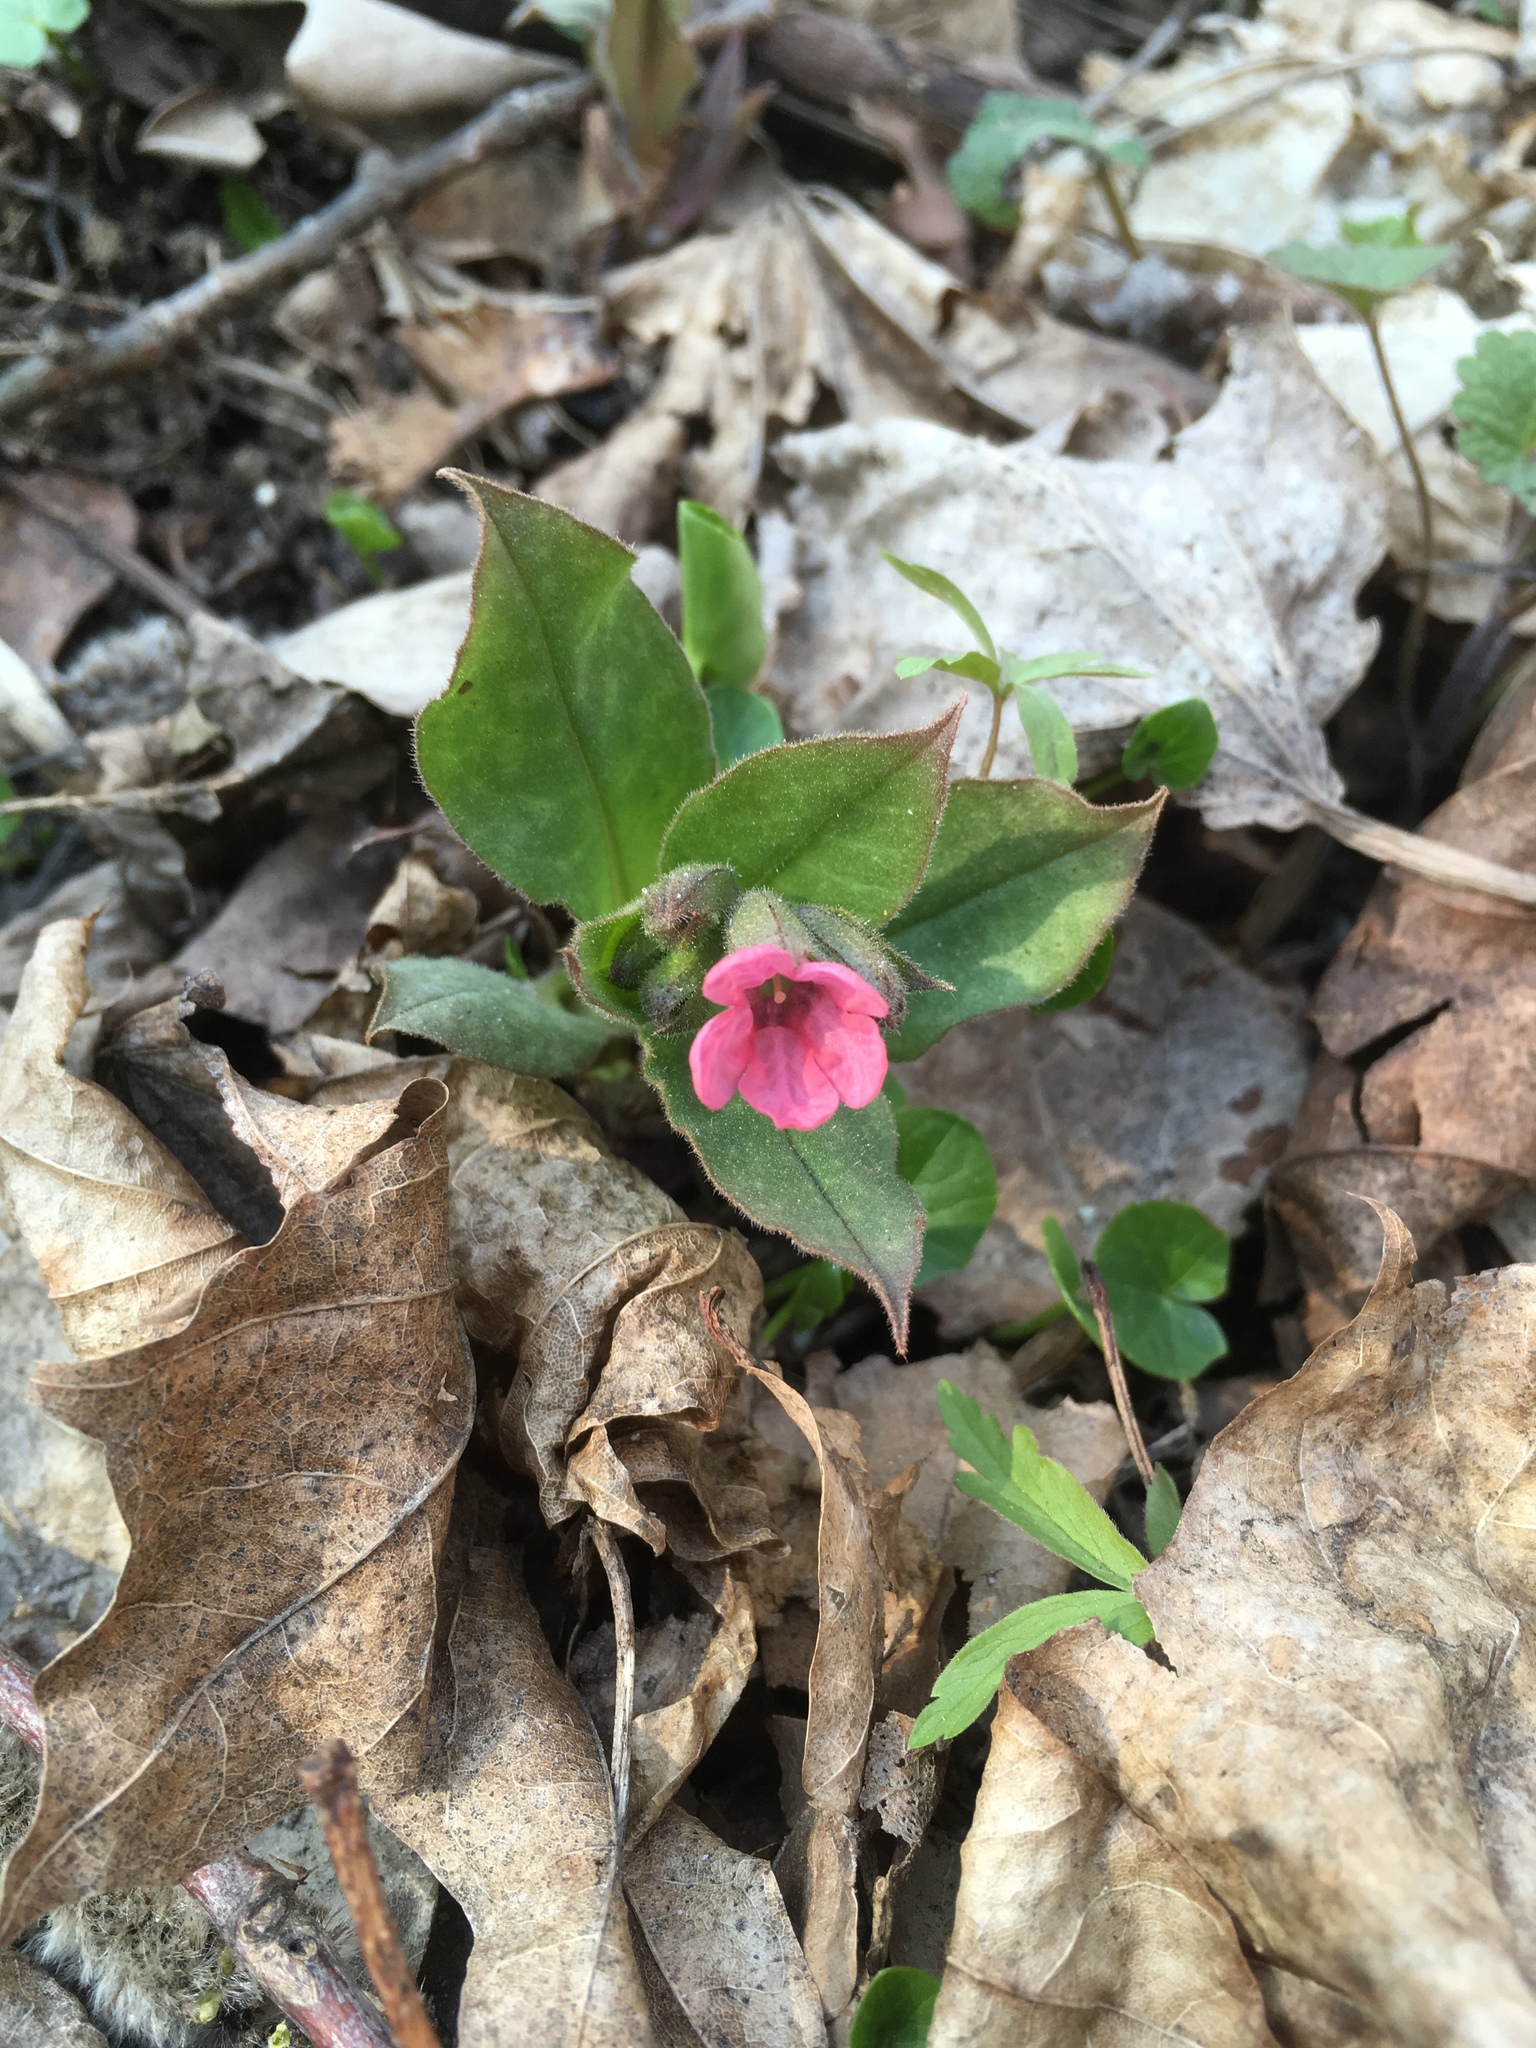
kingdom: Plantae
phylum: Tracheophyta
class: Magnoliopsida
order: Boraginales
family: Boraginaceae
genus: Pulmonaria
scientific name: Pulmonaria obscura
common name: Suffolk lungwort
